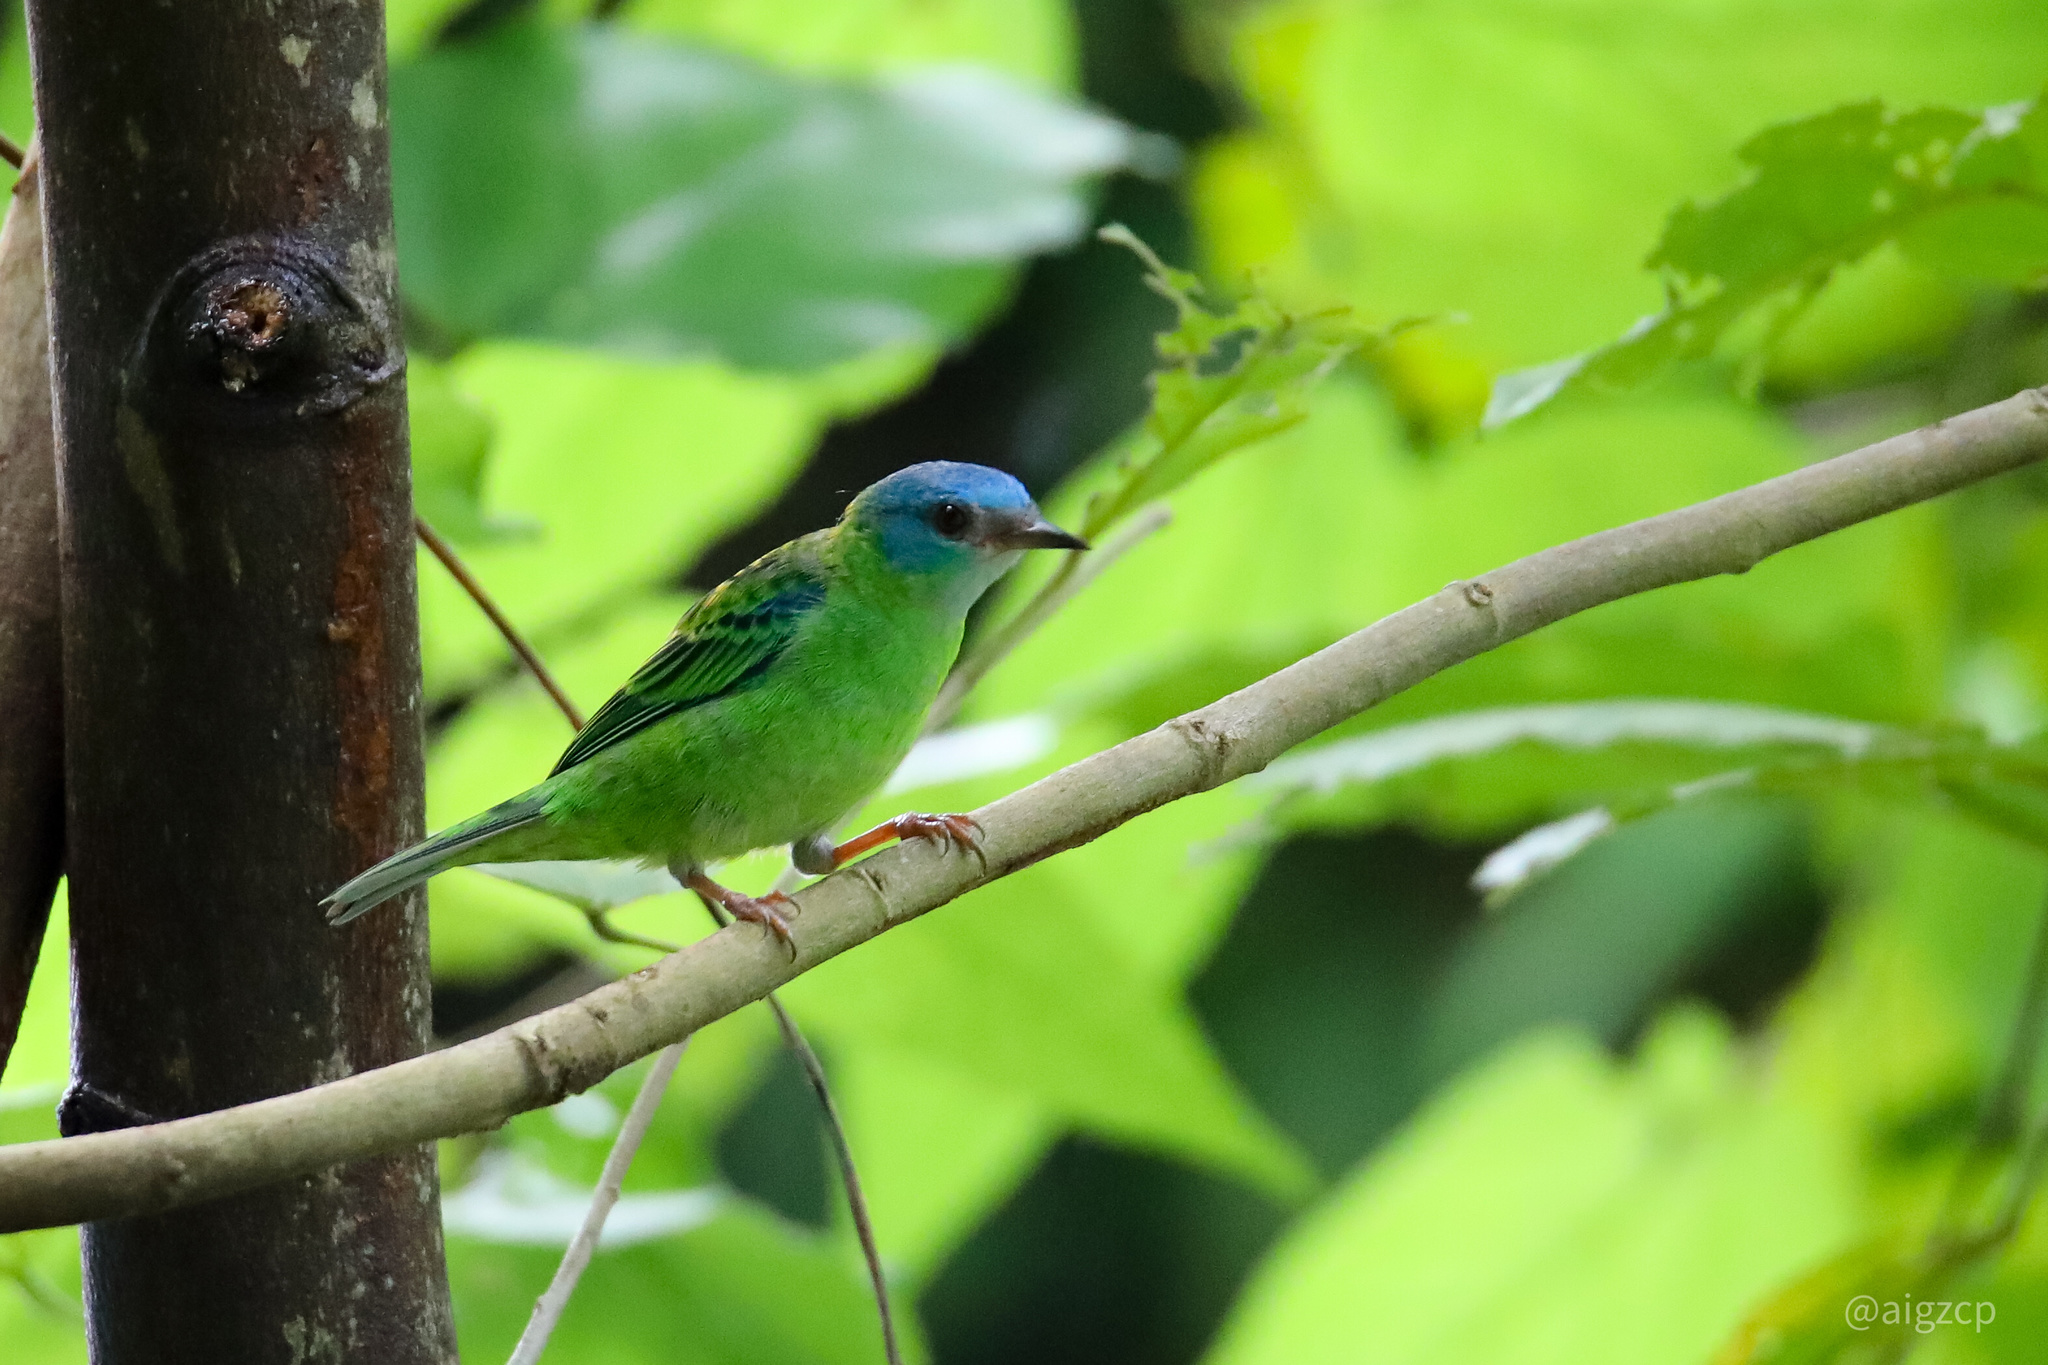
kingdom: Animalia
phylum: Chordata
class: Aves
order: Passeriformes
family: Thraupidae
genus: Dacnis
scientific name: Dacnis cayana
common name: Blue dacnis
